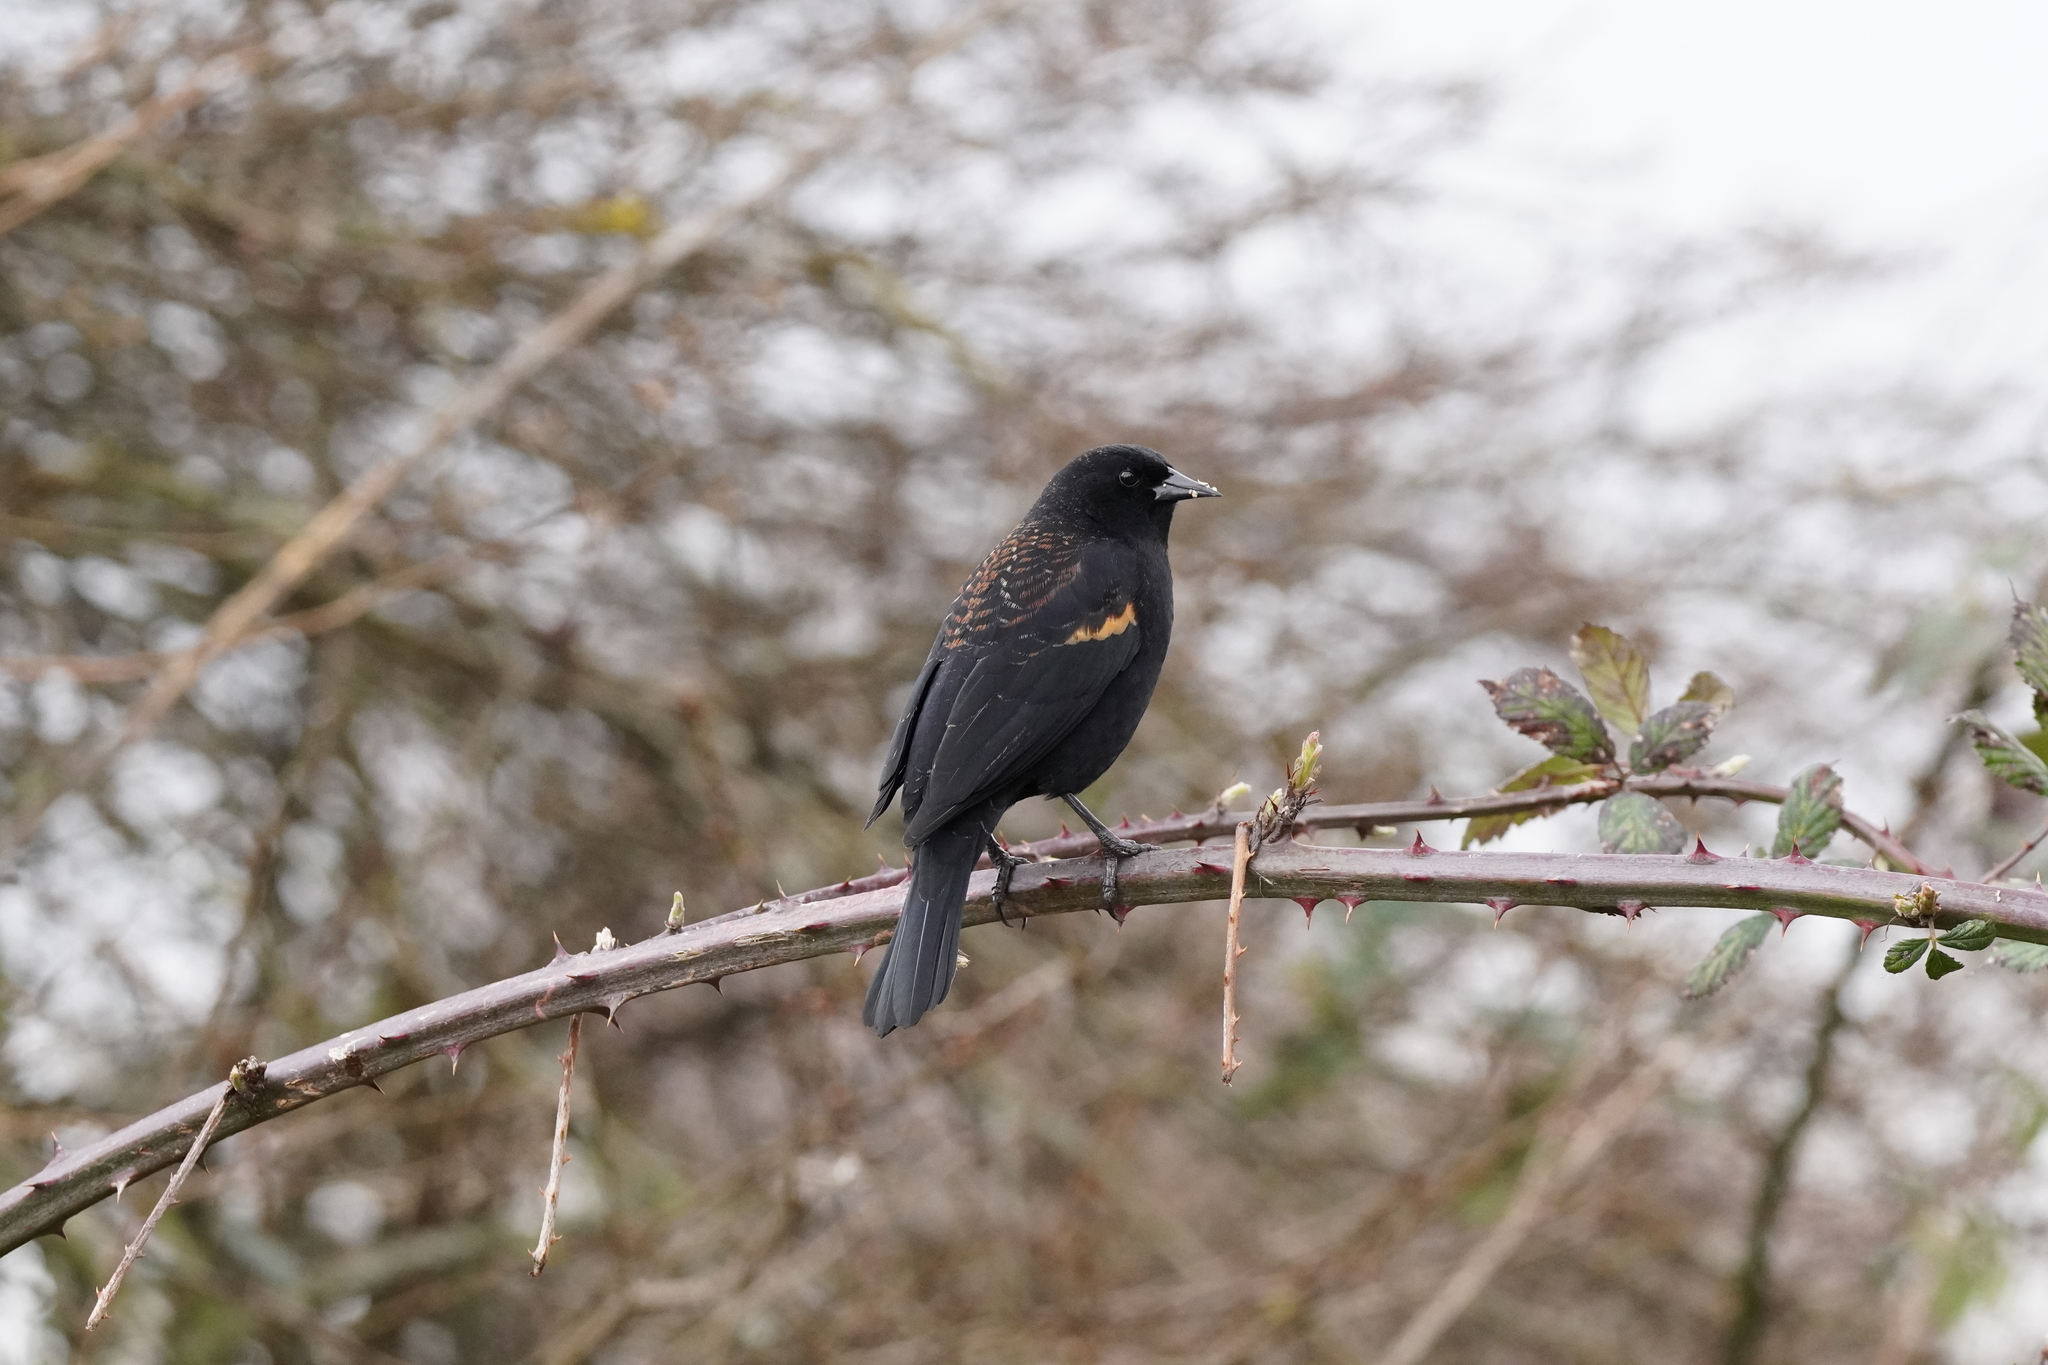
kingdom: Animalia
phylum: Chordata
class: Aves
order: Passeriformes
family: Icteridae
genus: Agelaius
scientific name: Agelaius phoeniceus
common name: Red-winged blackbird
